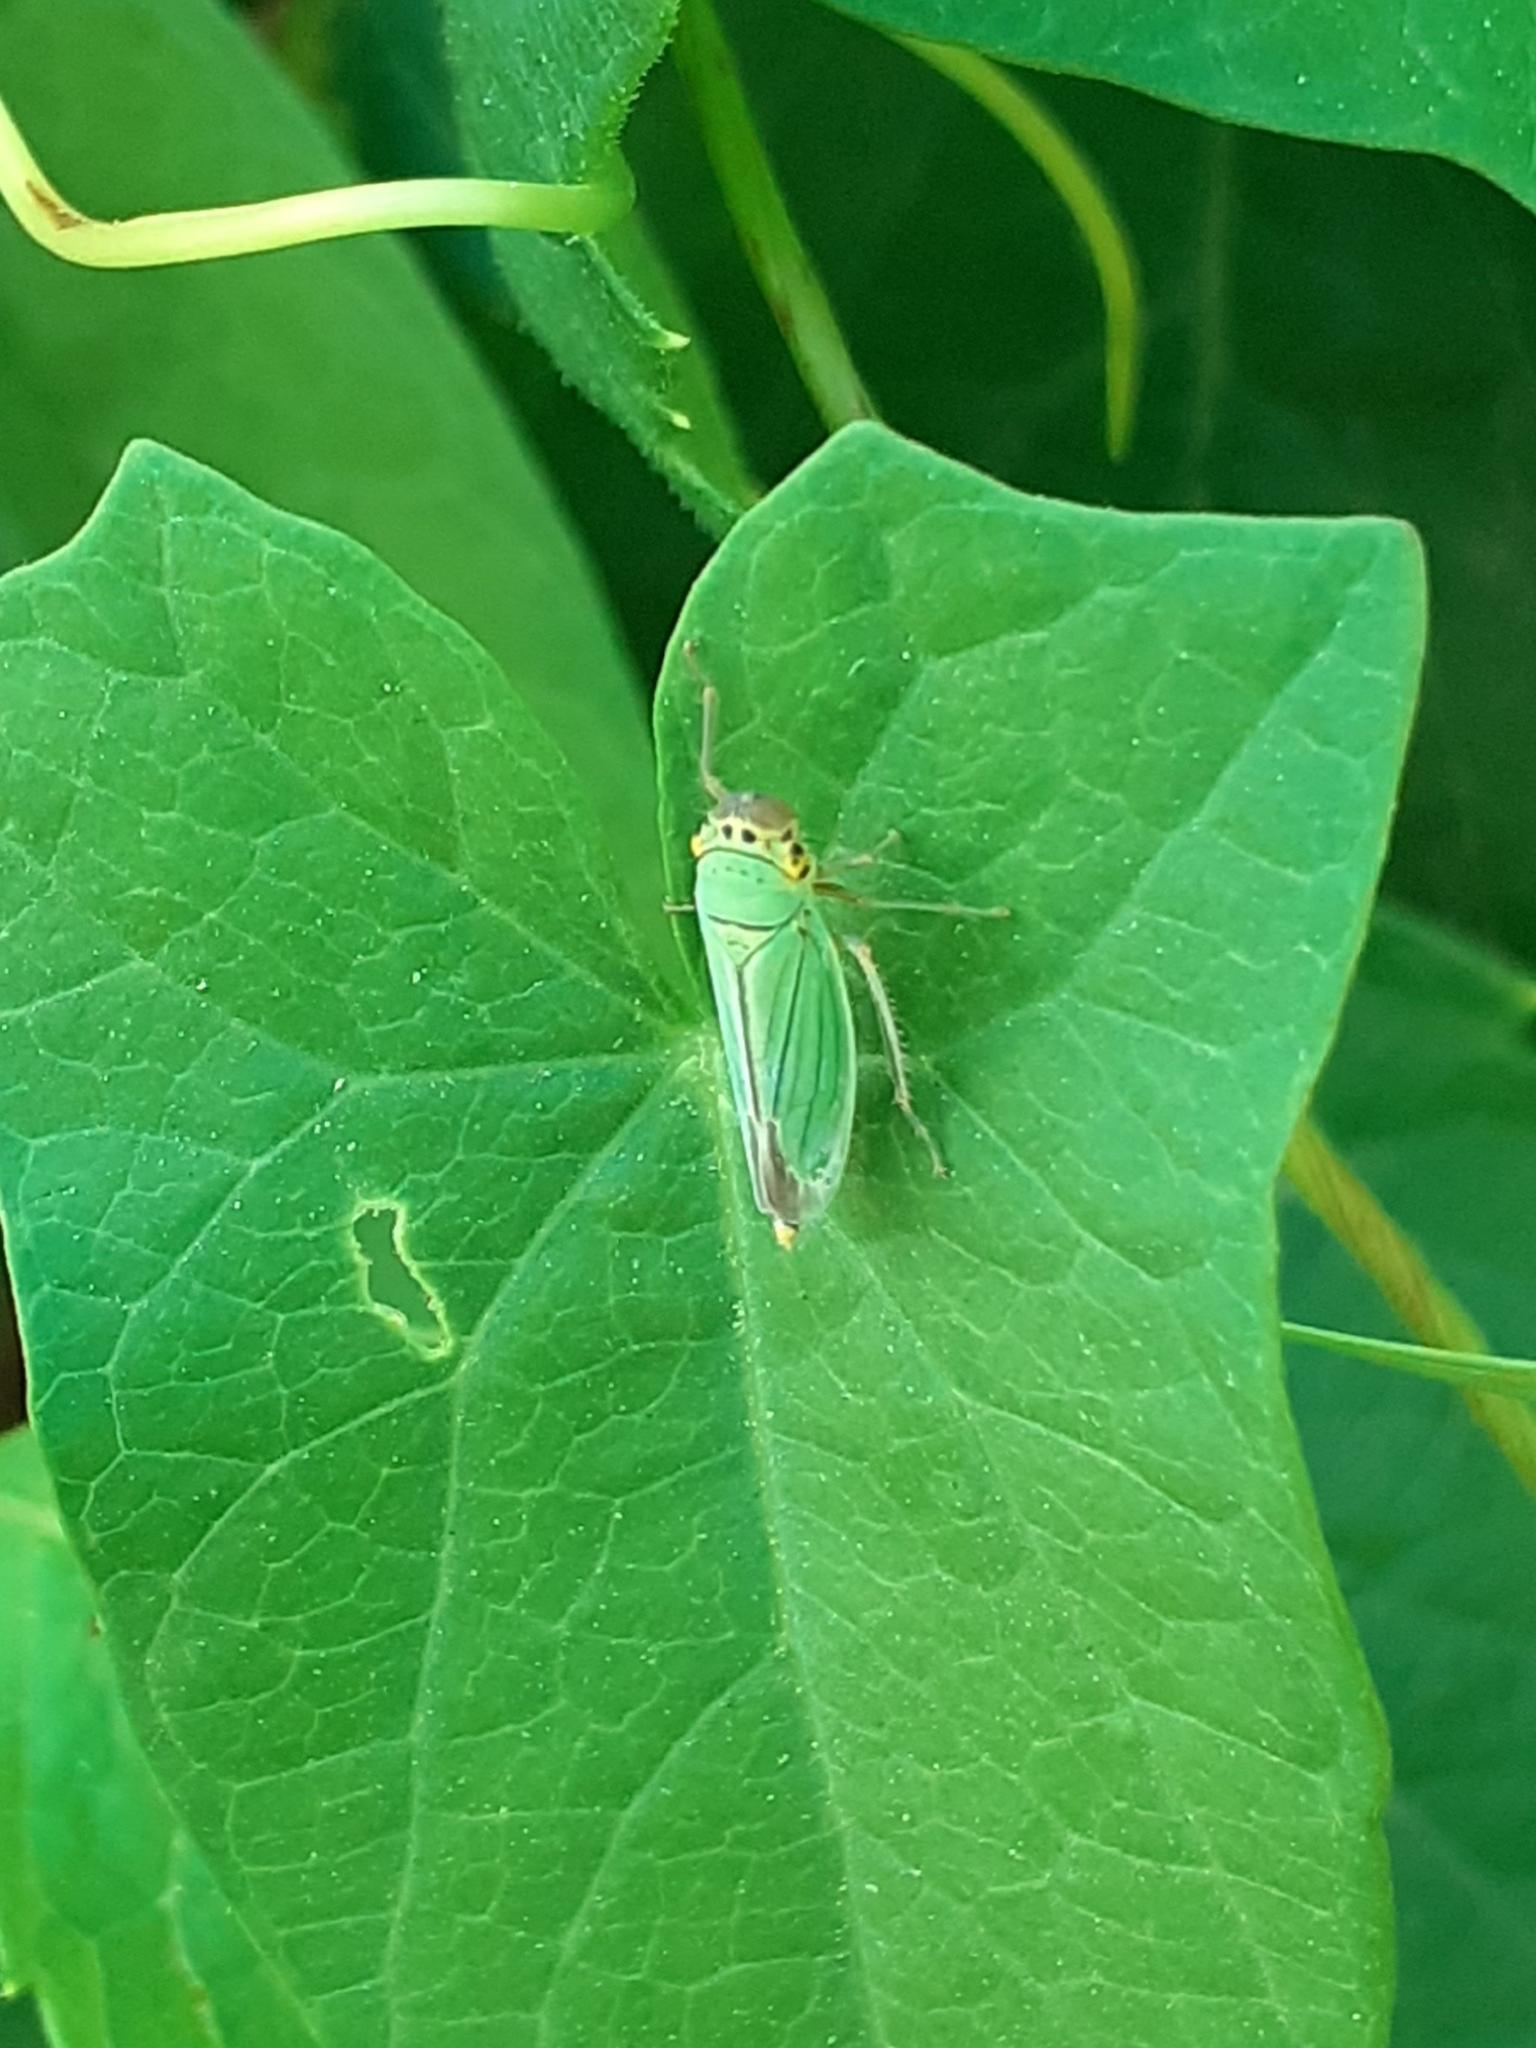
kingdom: Animalia
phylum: Arthropoda
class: Insecta
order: Hemiptera
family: Cicadellidae
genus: Cicadella
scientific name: Cicadella viridis
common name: Leafhopper
